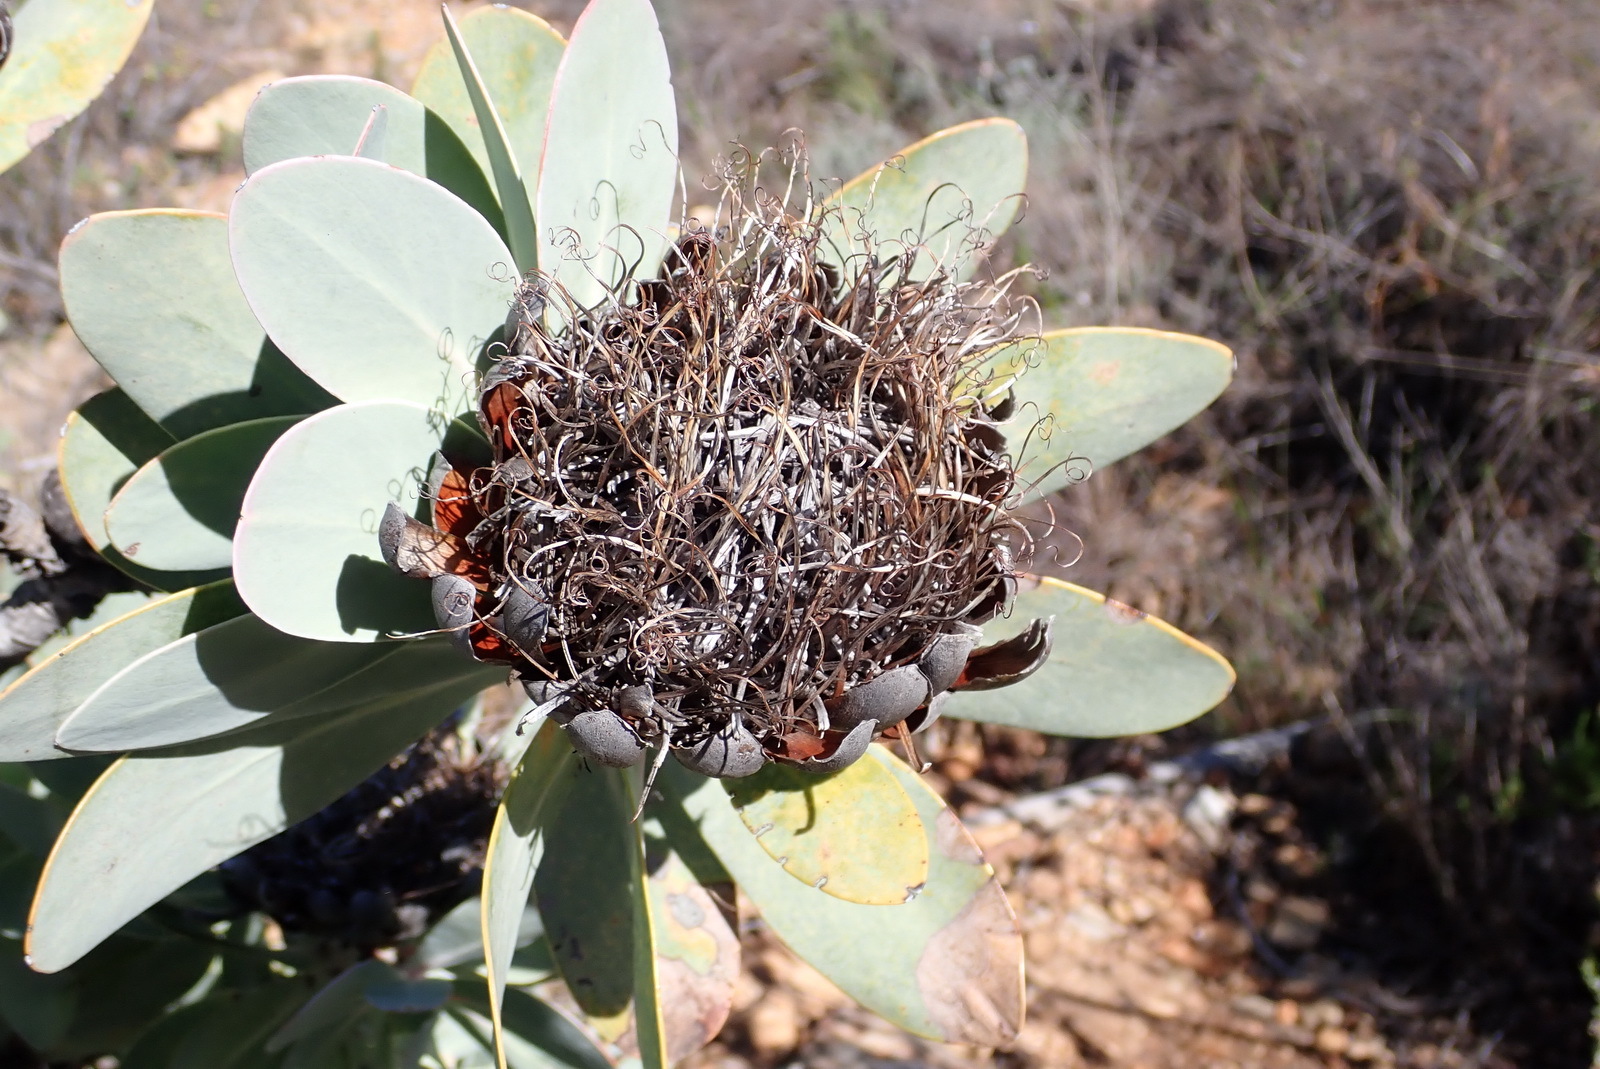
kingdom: Plantae
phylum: Tracheophyta
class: Magnoliopsida
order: Proteales
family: Proteaceae
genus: Protea
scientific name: Protea nitida
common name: Tree protea
